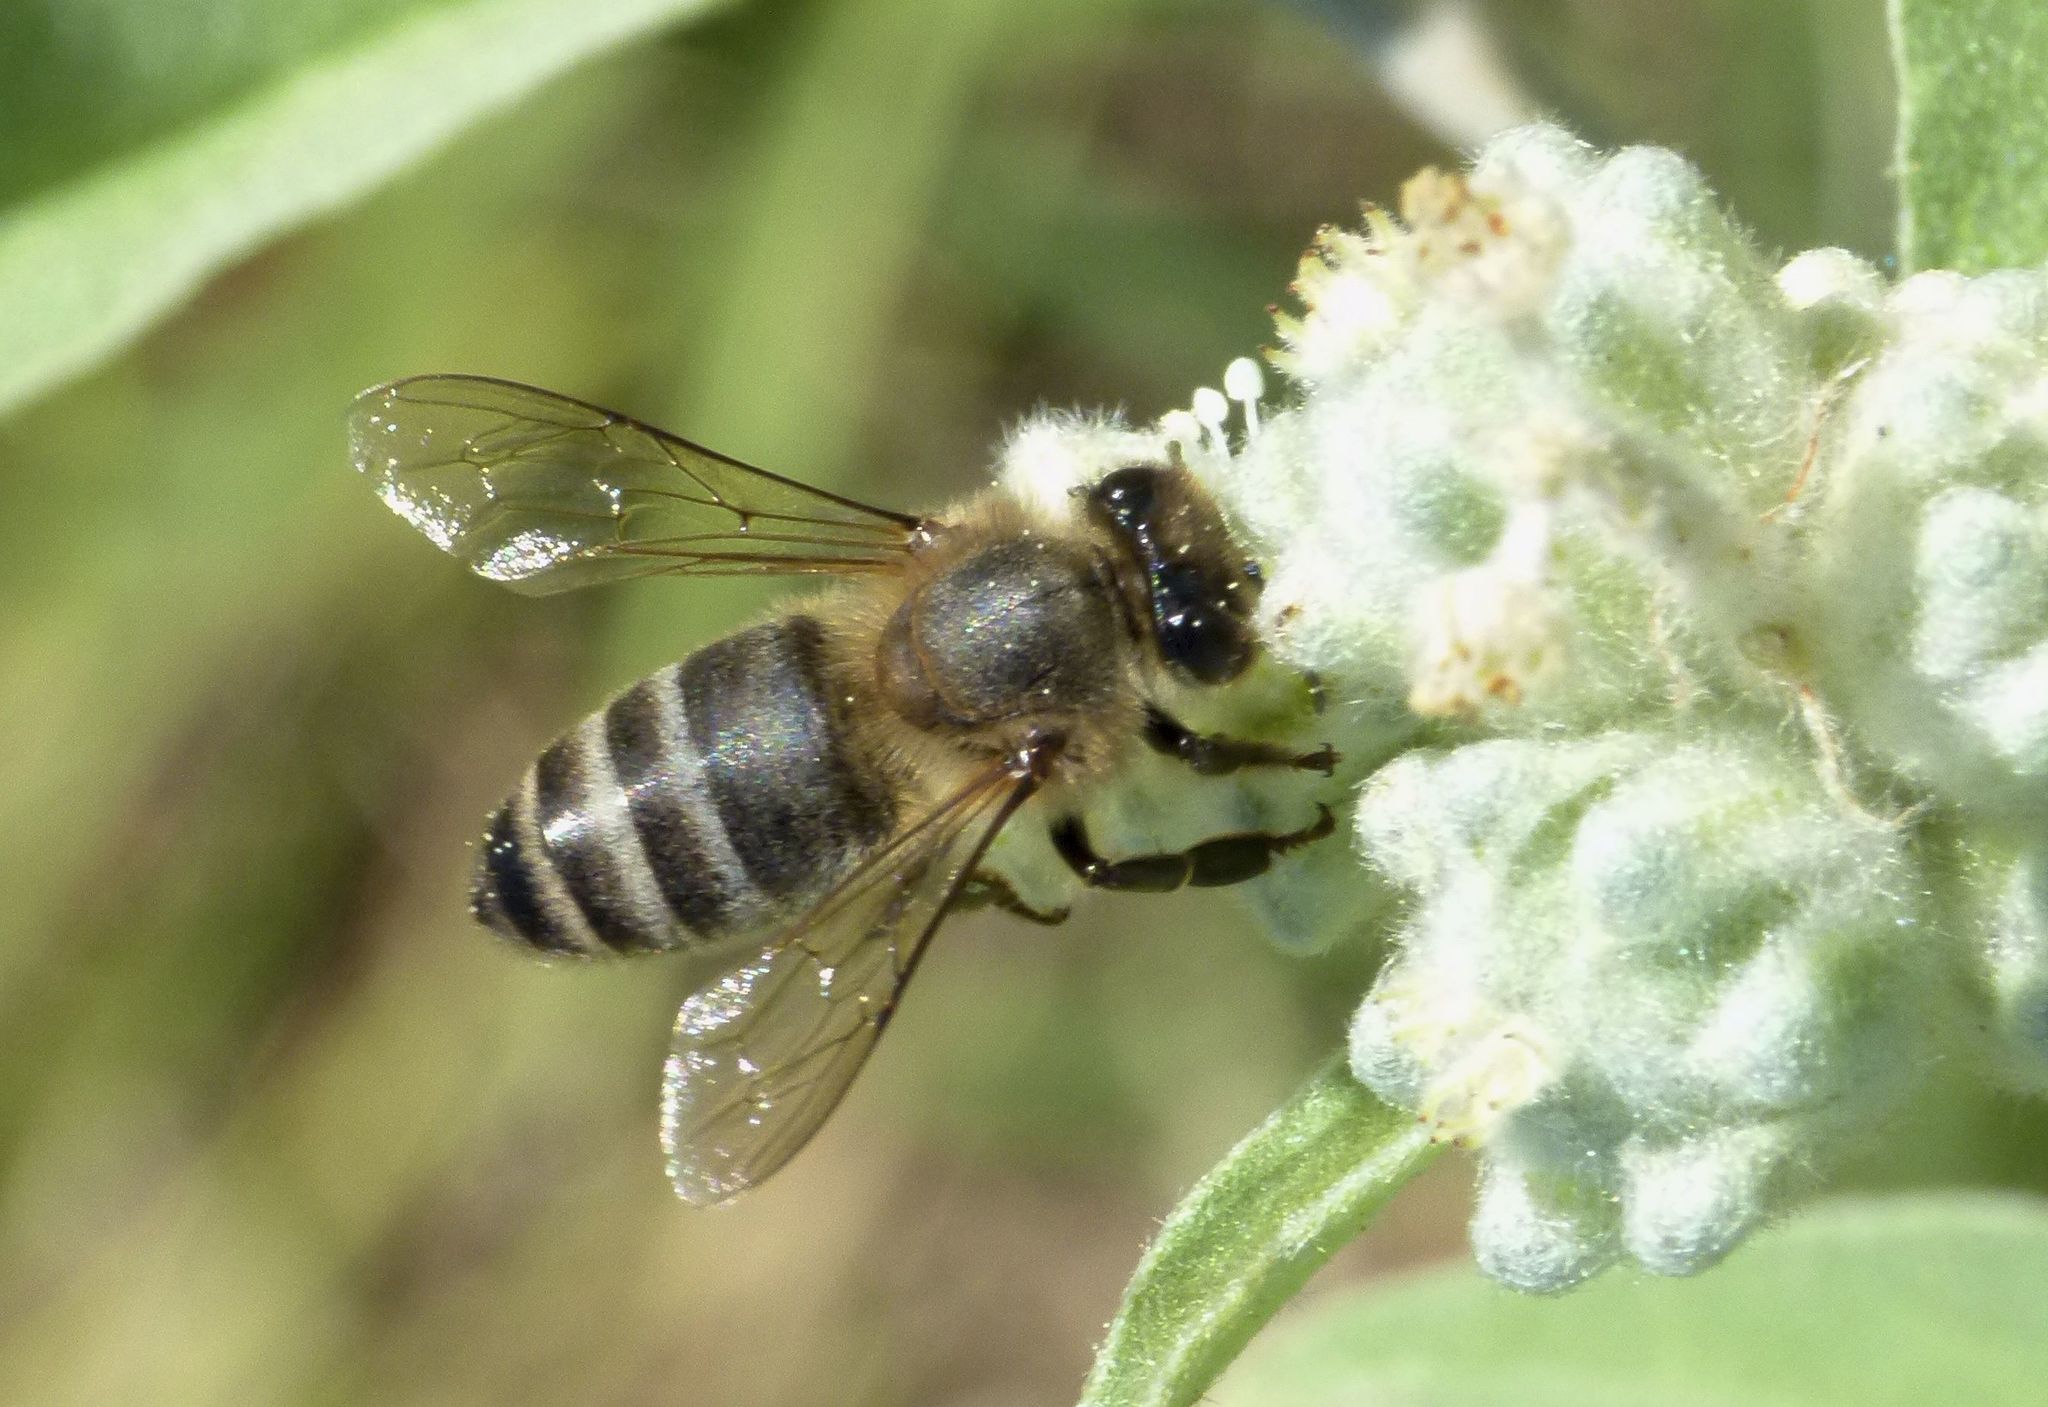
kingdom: Animalia
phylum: Arthropoda
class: Insecta
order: Hymenoptera
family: Apidae
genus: Apis
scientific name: Apis mellifera
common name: Honey bee
